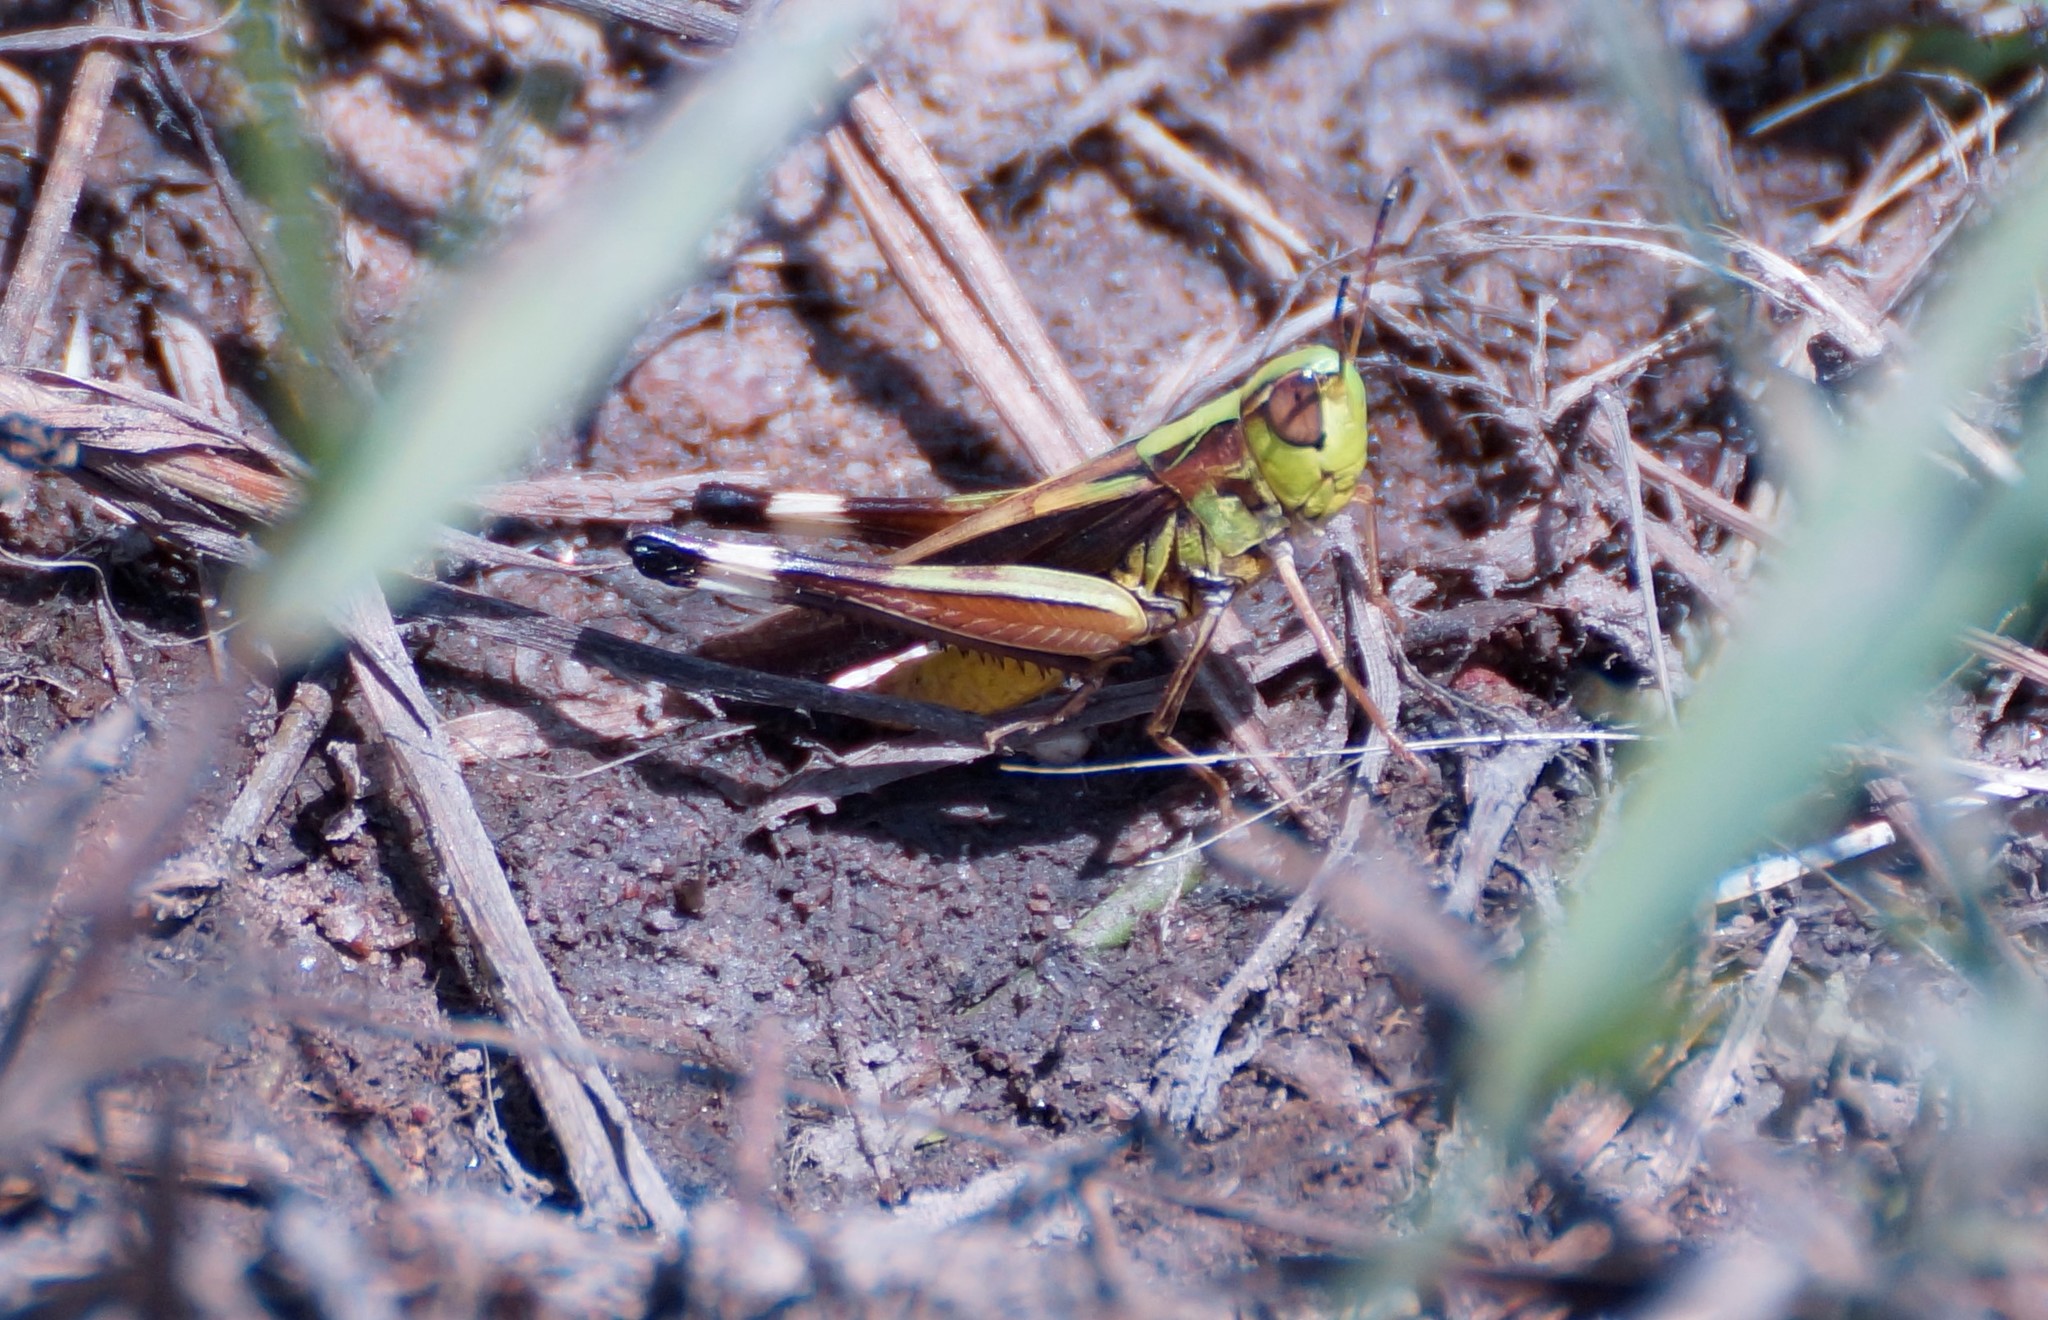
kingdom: Animalia
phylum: Arthropoda
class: Insecta
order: Orthoptera
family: Acrididae
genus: Caledia
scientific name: Caledia captiva
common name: Caledia
